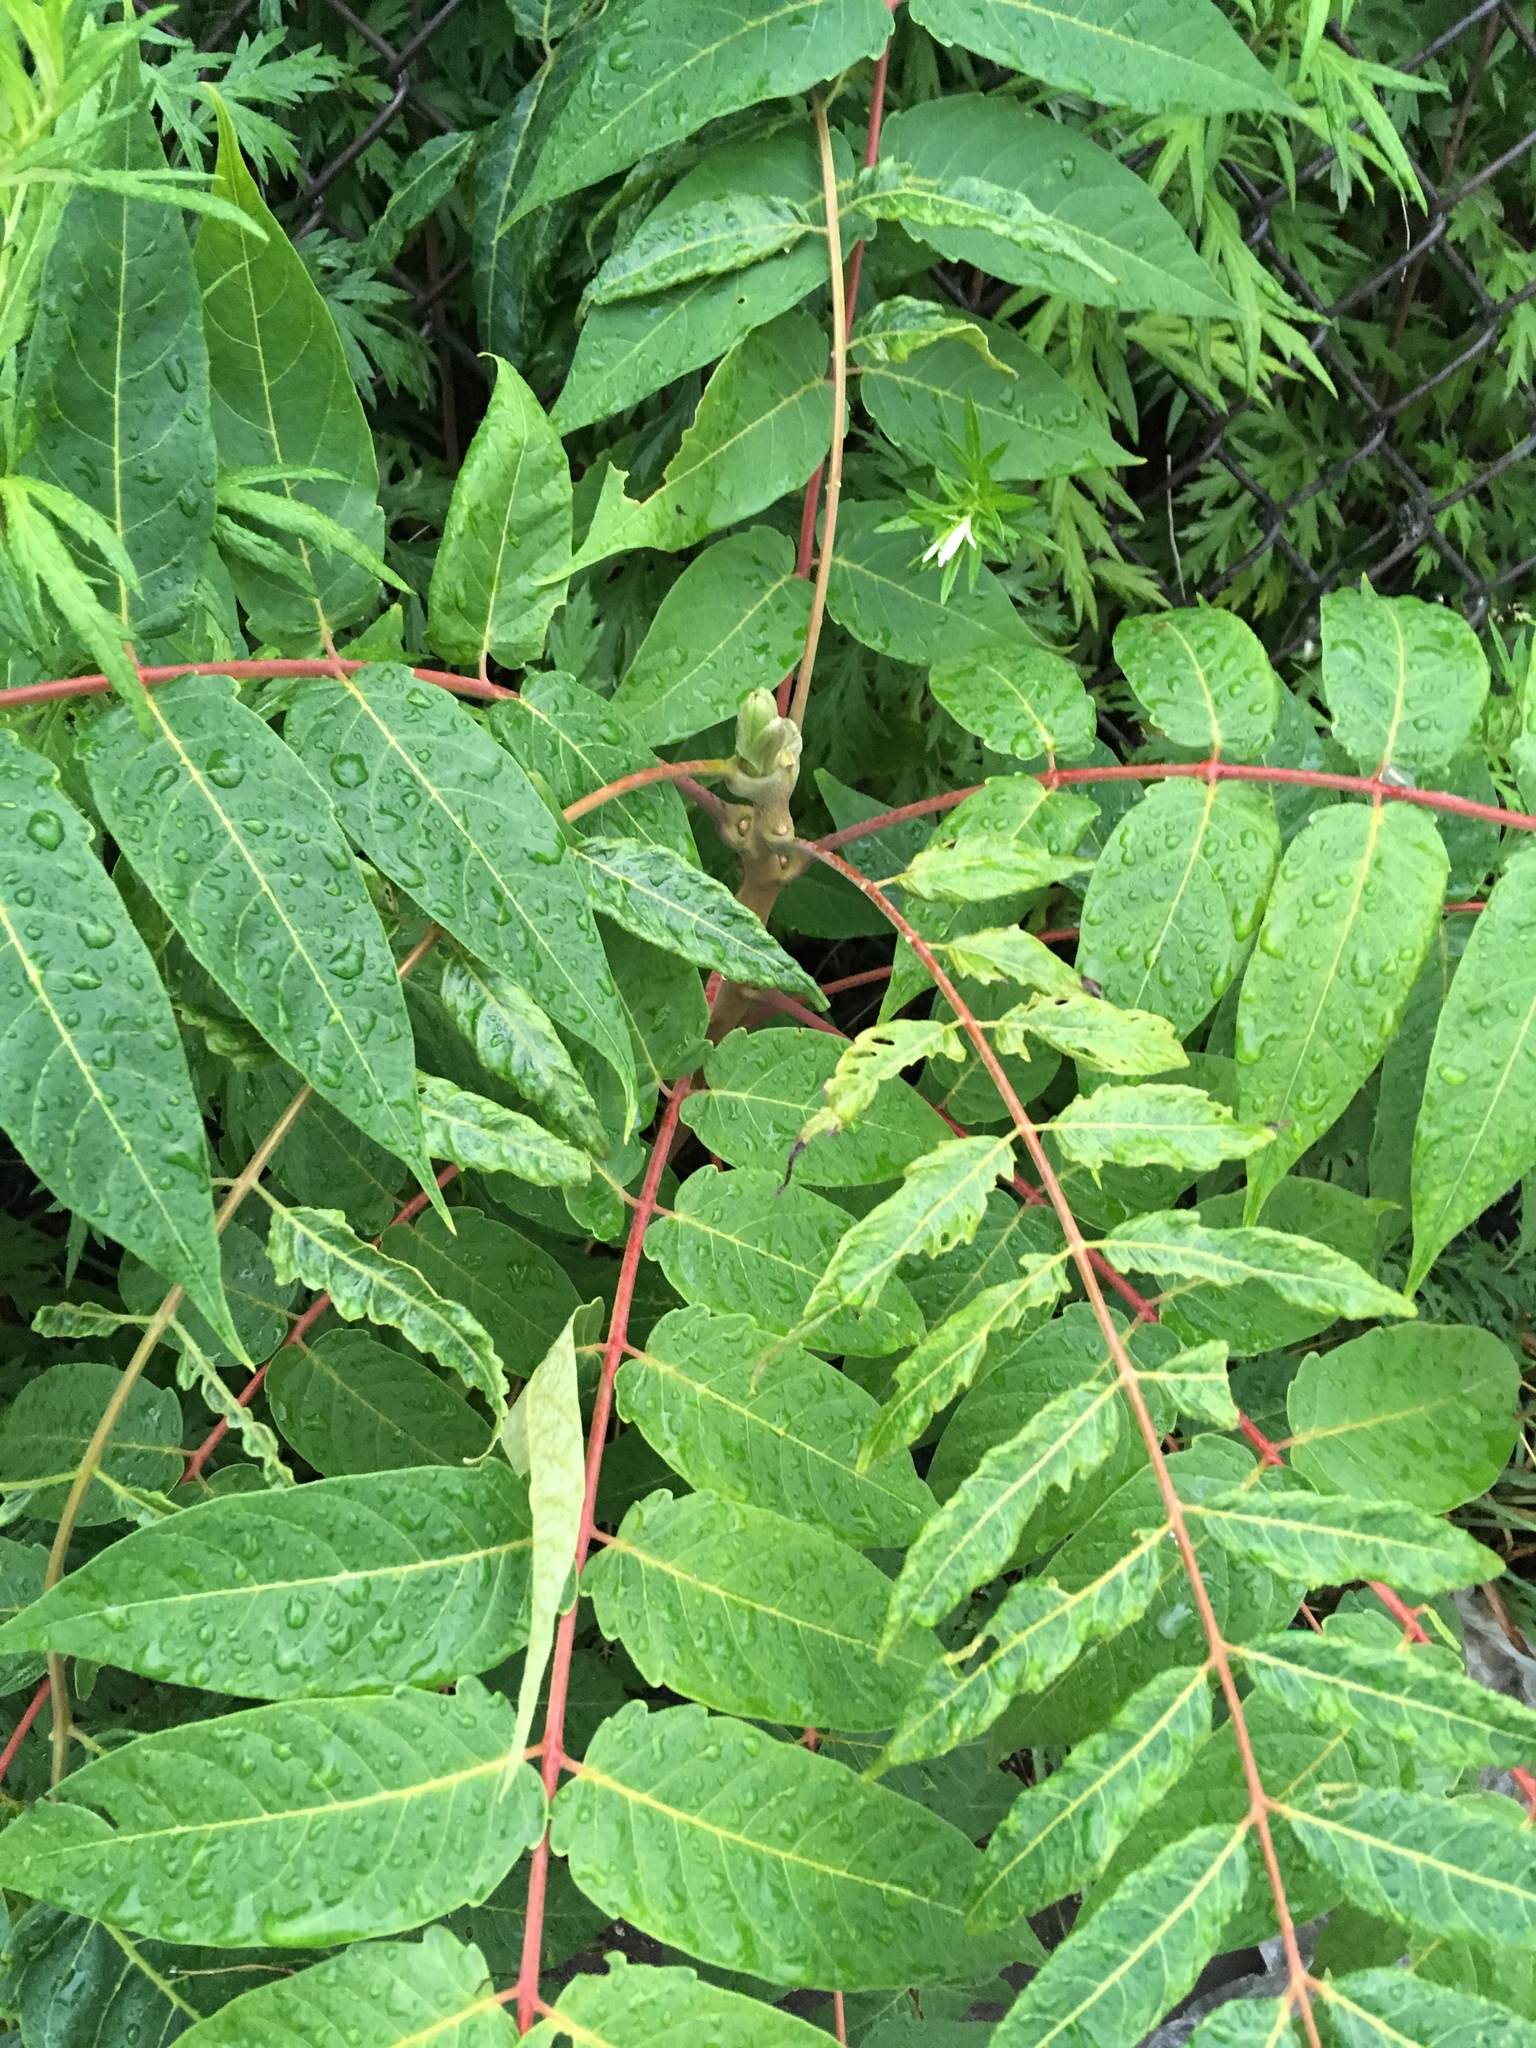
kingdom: Plantae
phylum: Tracheophyta
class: Magnoliopsida
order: Sapindales
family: Simaroubaceae
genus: Ailanthus
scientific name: Ailanthus altissima
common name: Tree-of-heaven
